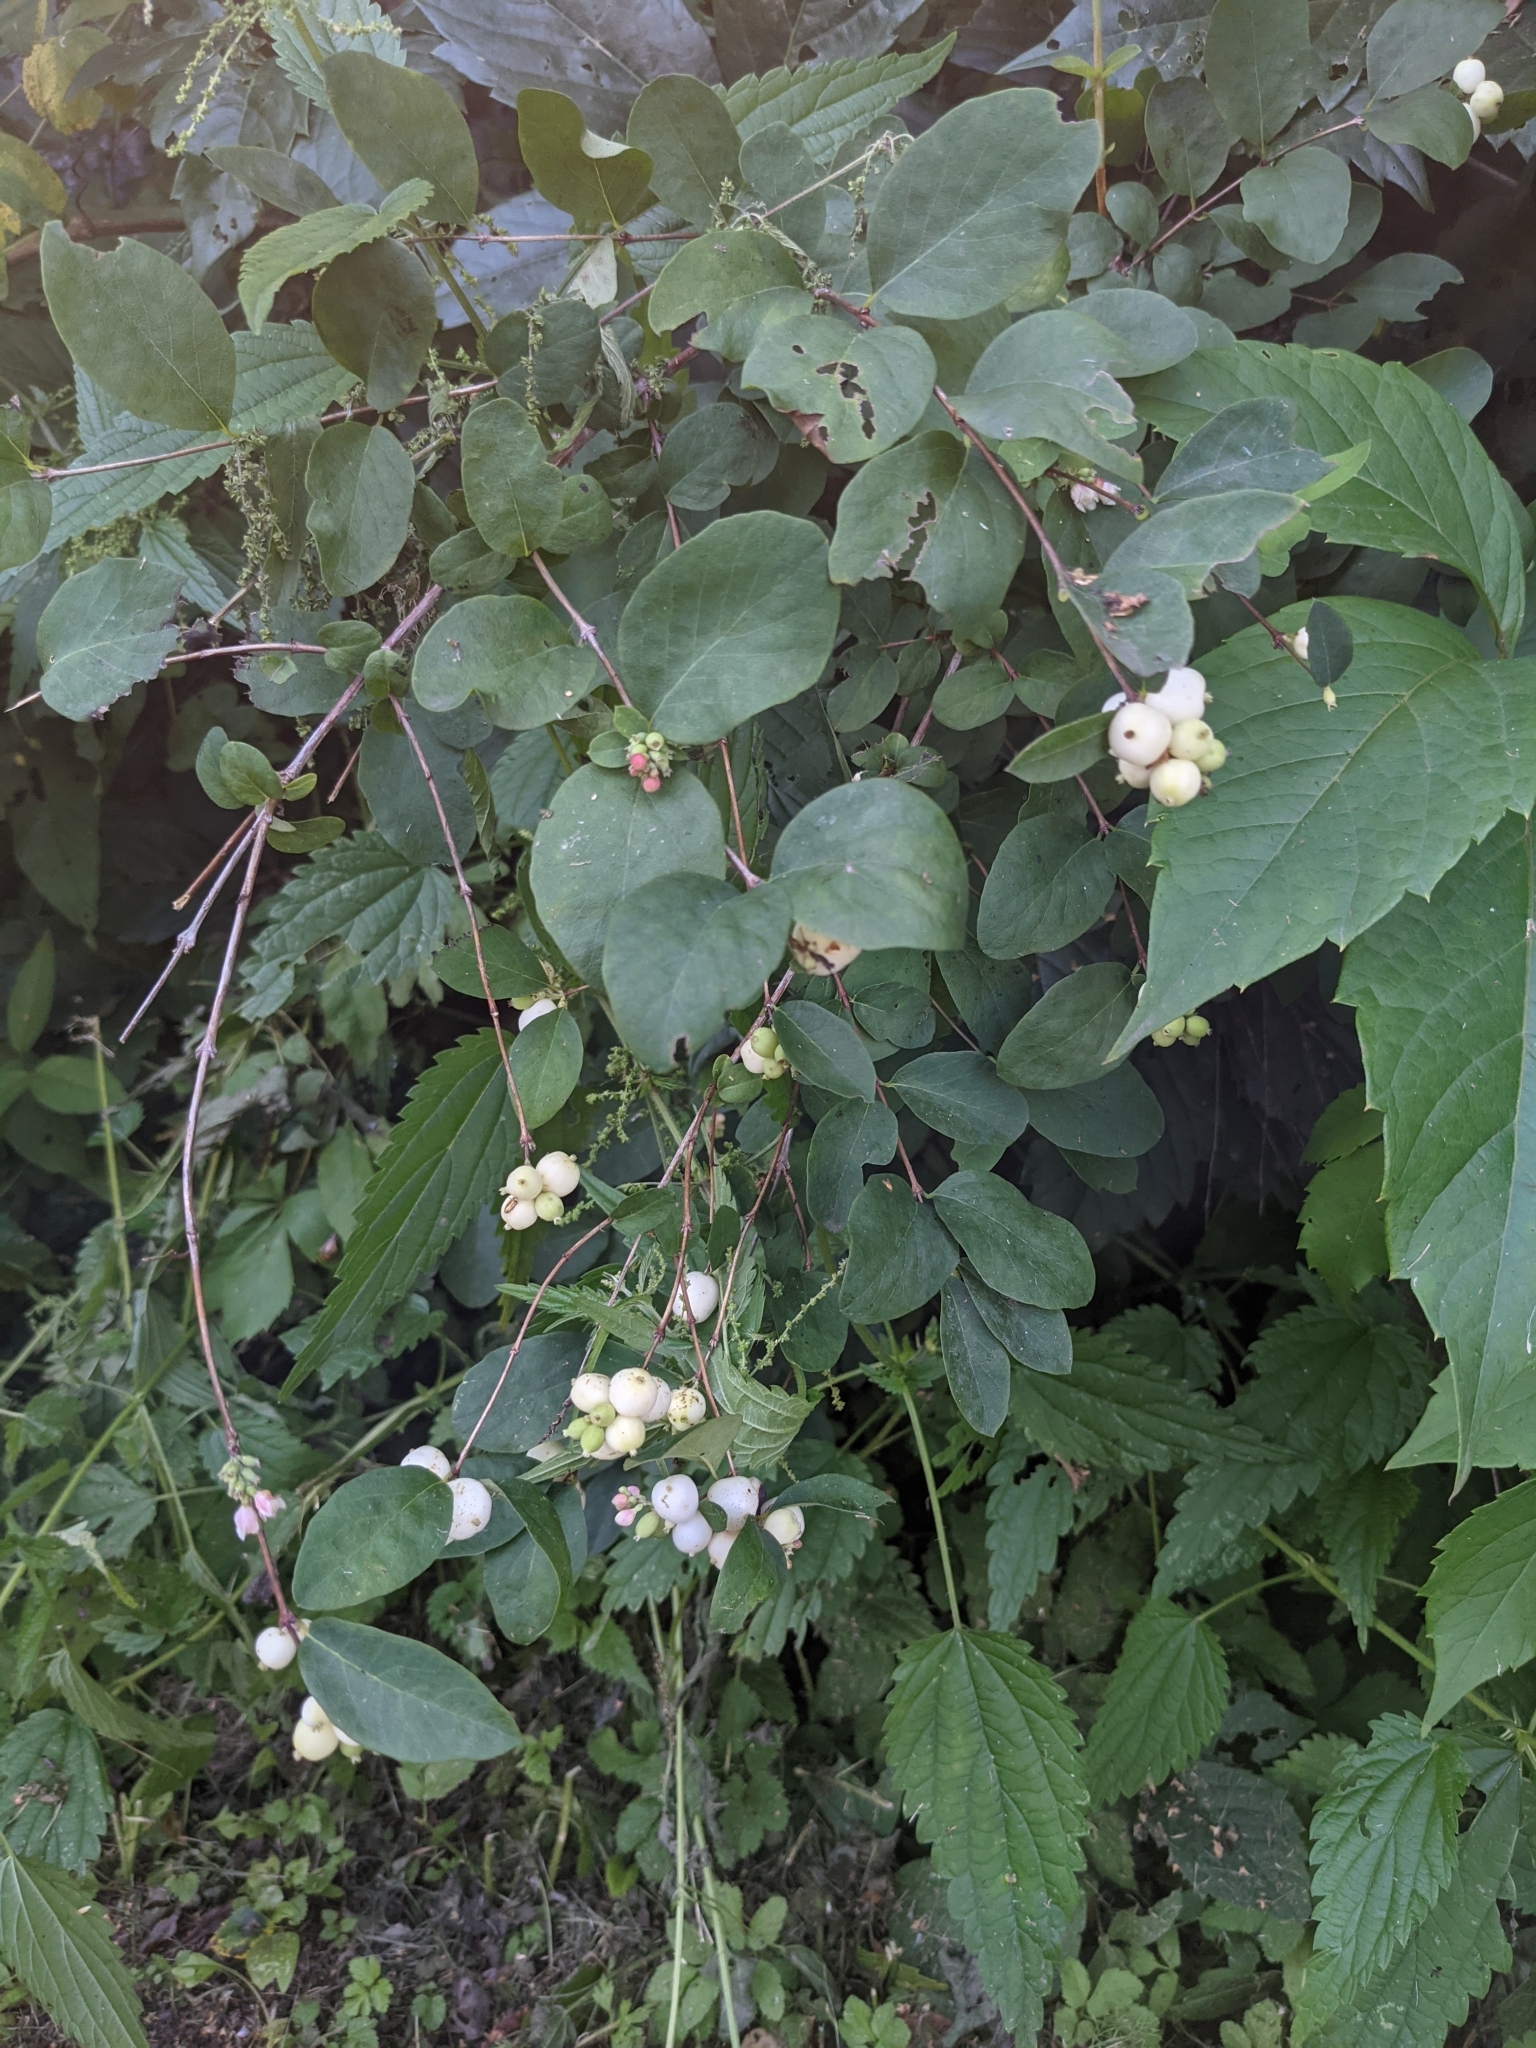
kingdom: Plantae
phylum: Tracheophyta
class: Magnoliopsida
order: Dipsacales
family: Caprifoliaceae
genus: Symphoricarpos
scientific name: Symphoricarpos albus
